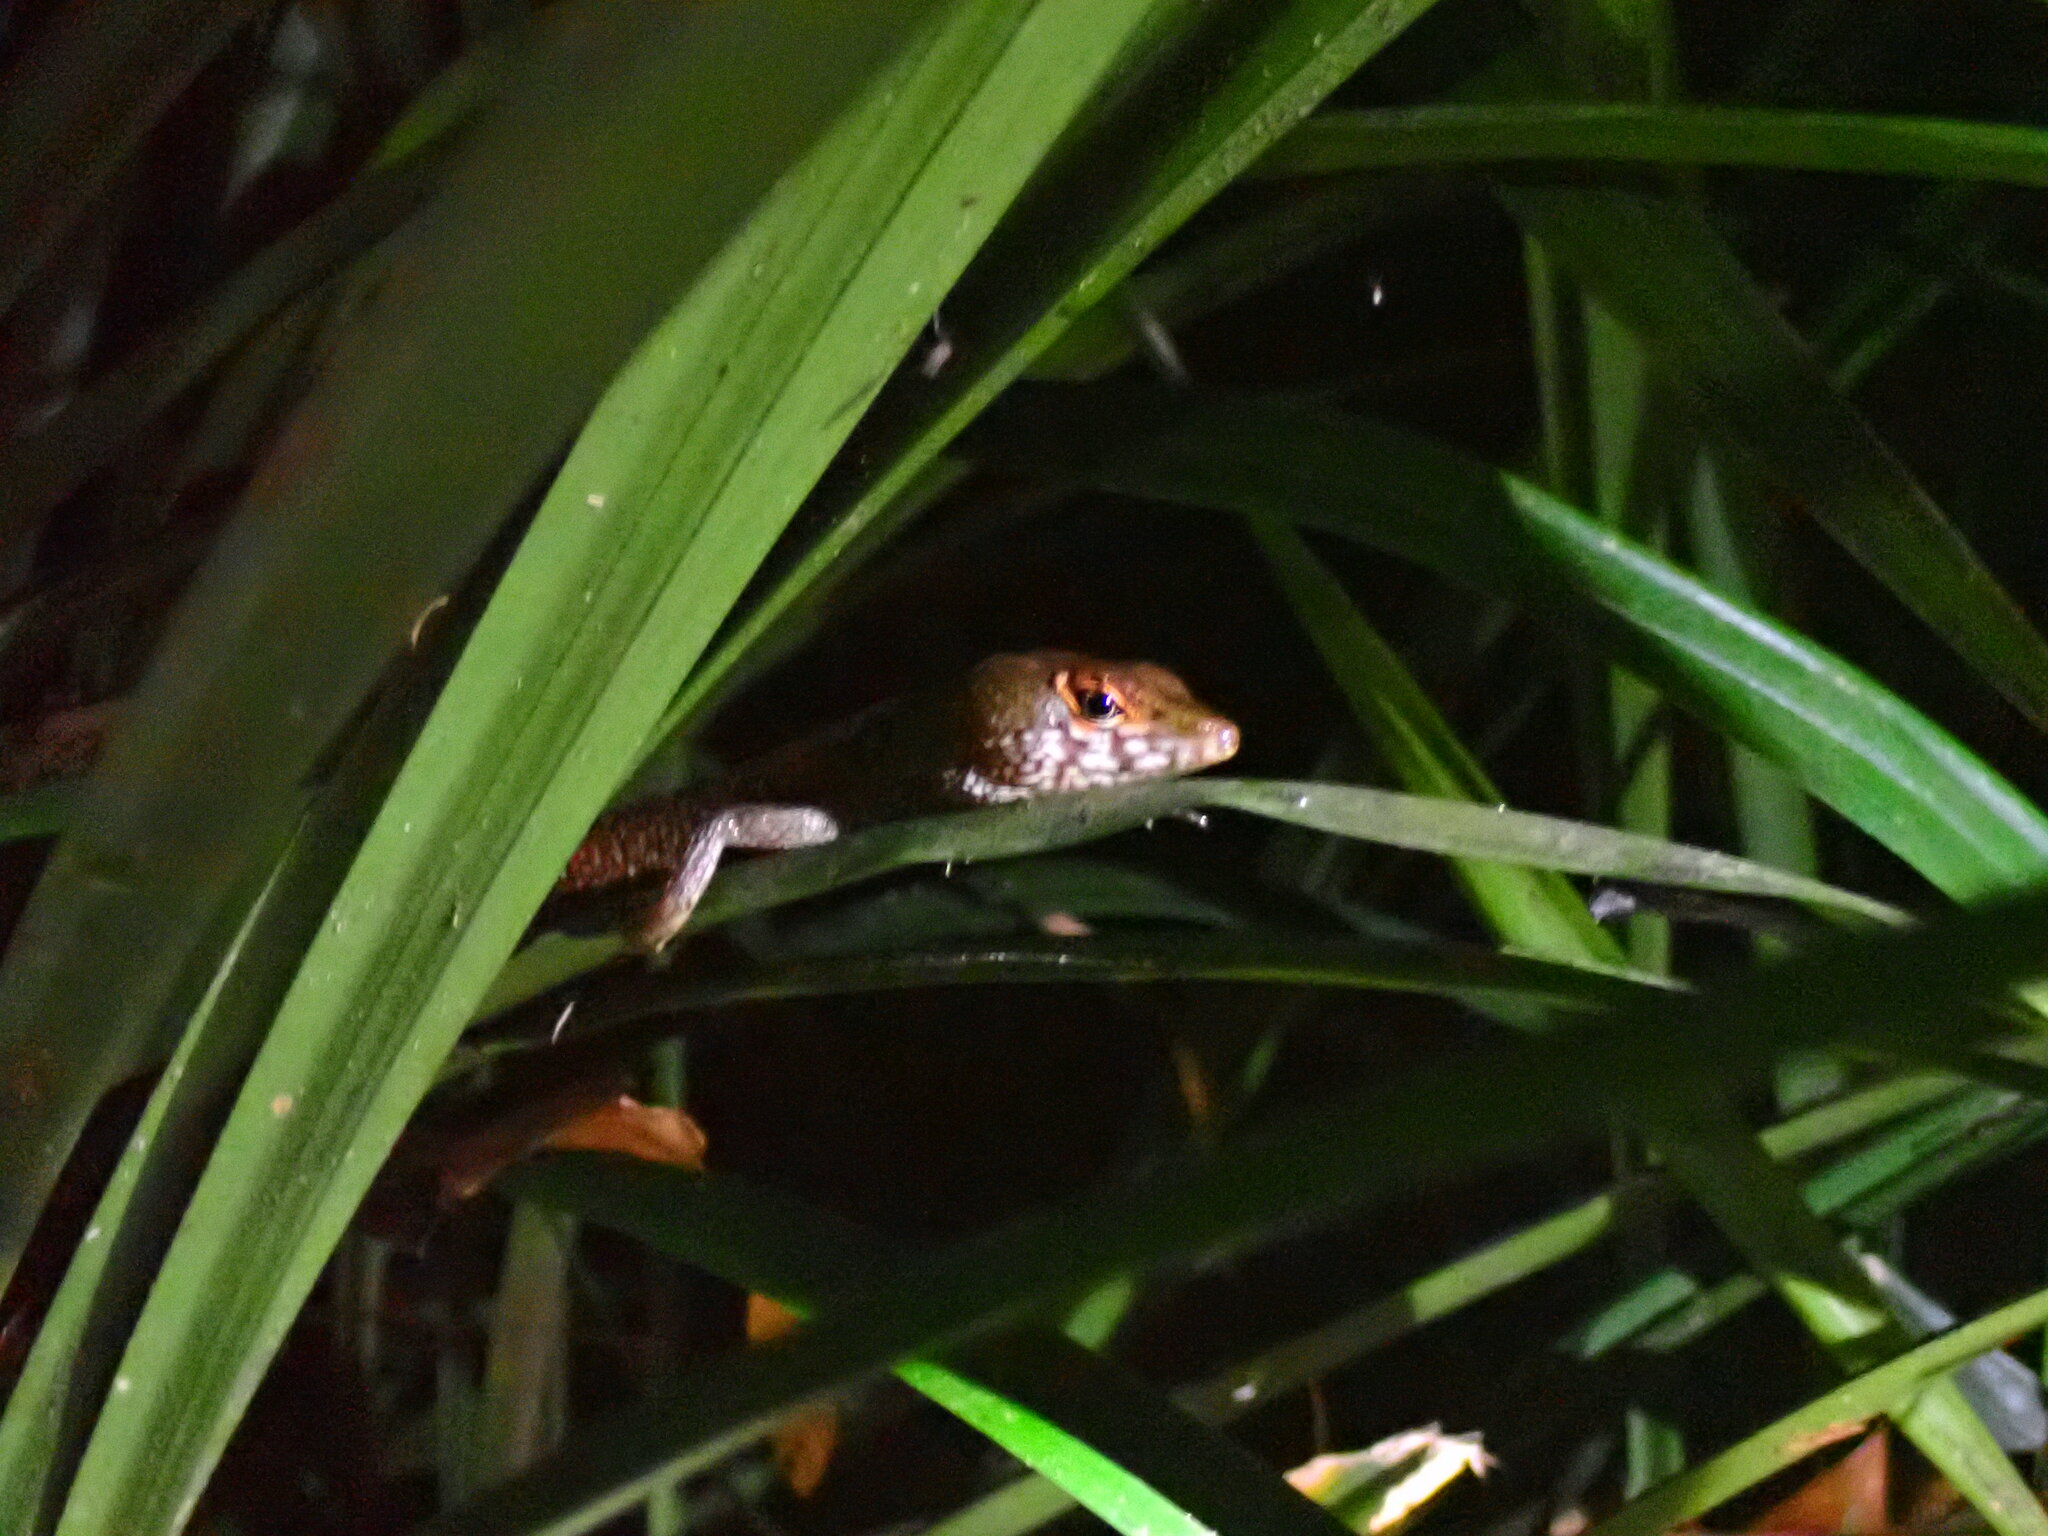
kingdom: Animalia
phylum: Chordata
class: Squamata
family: Gymnophthalmidae
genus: Neusticurus
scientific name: Neusticurus bicarinatus
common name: Two-faced neusticurus
